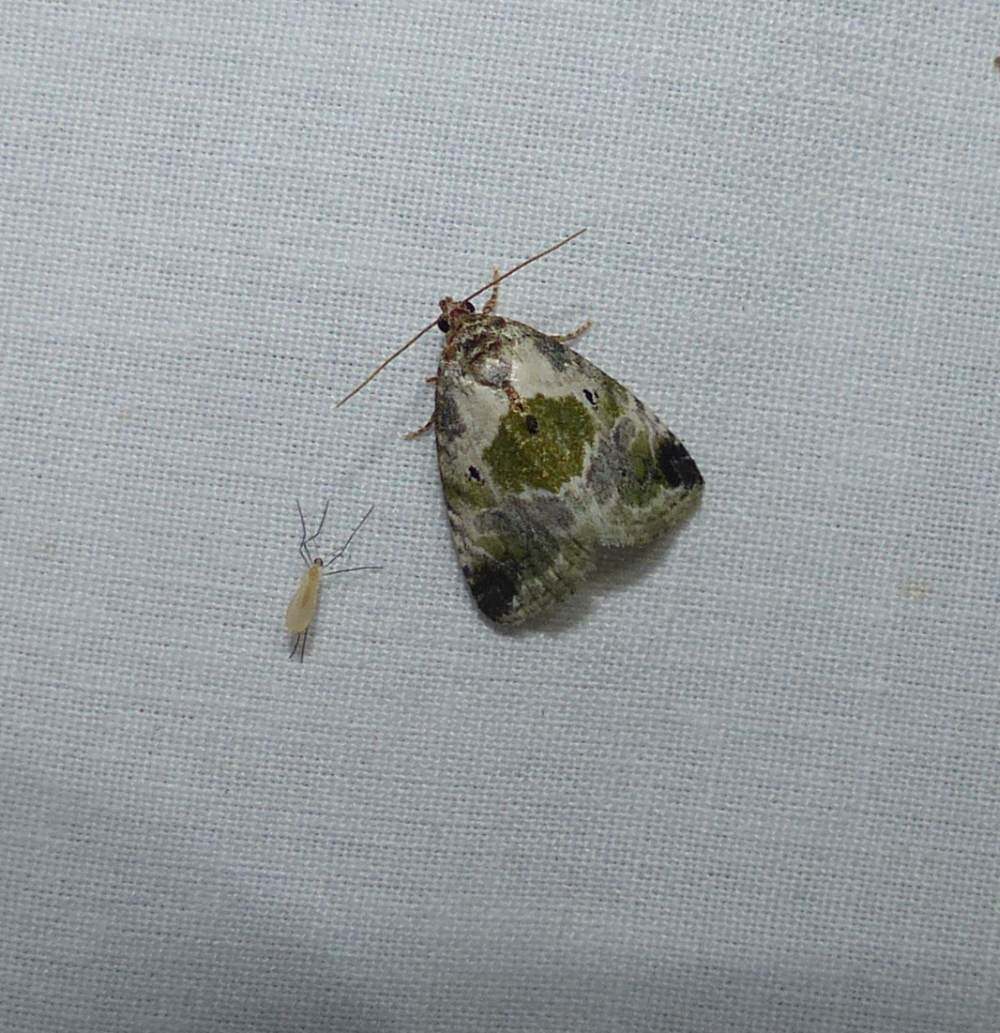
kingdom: Animalia
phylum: Arthropoda
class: Insecta
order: Lepidoptera
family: Noctuidae
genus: Maliattha
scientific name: Maliattha synochitis
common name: Black-dotted glyph
